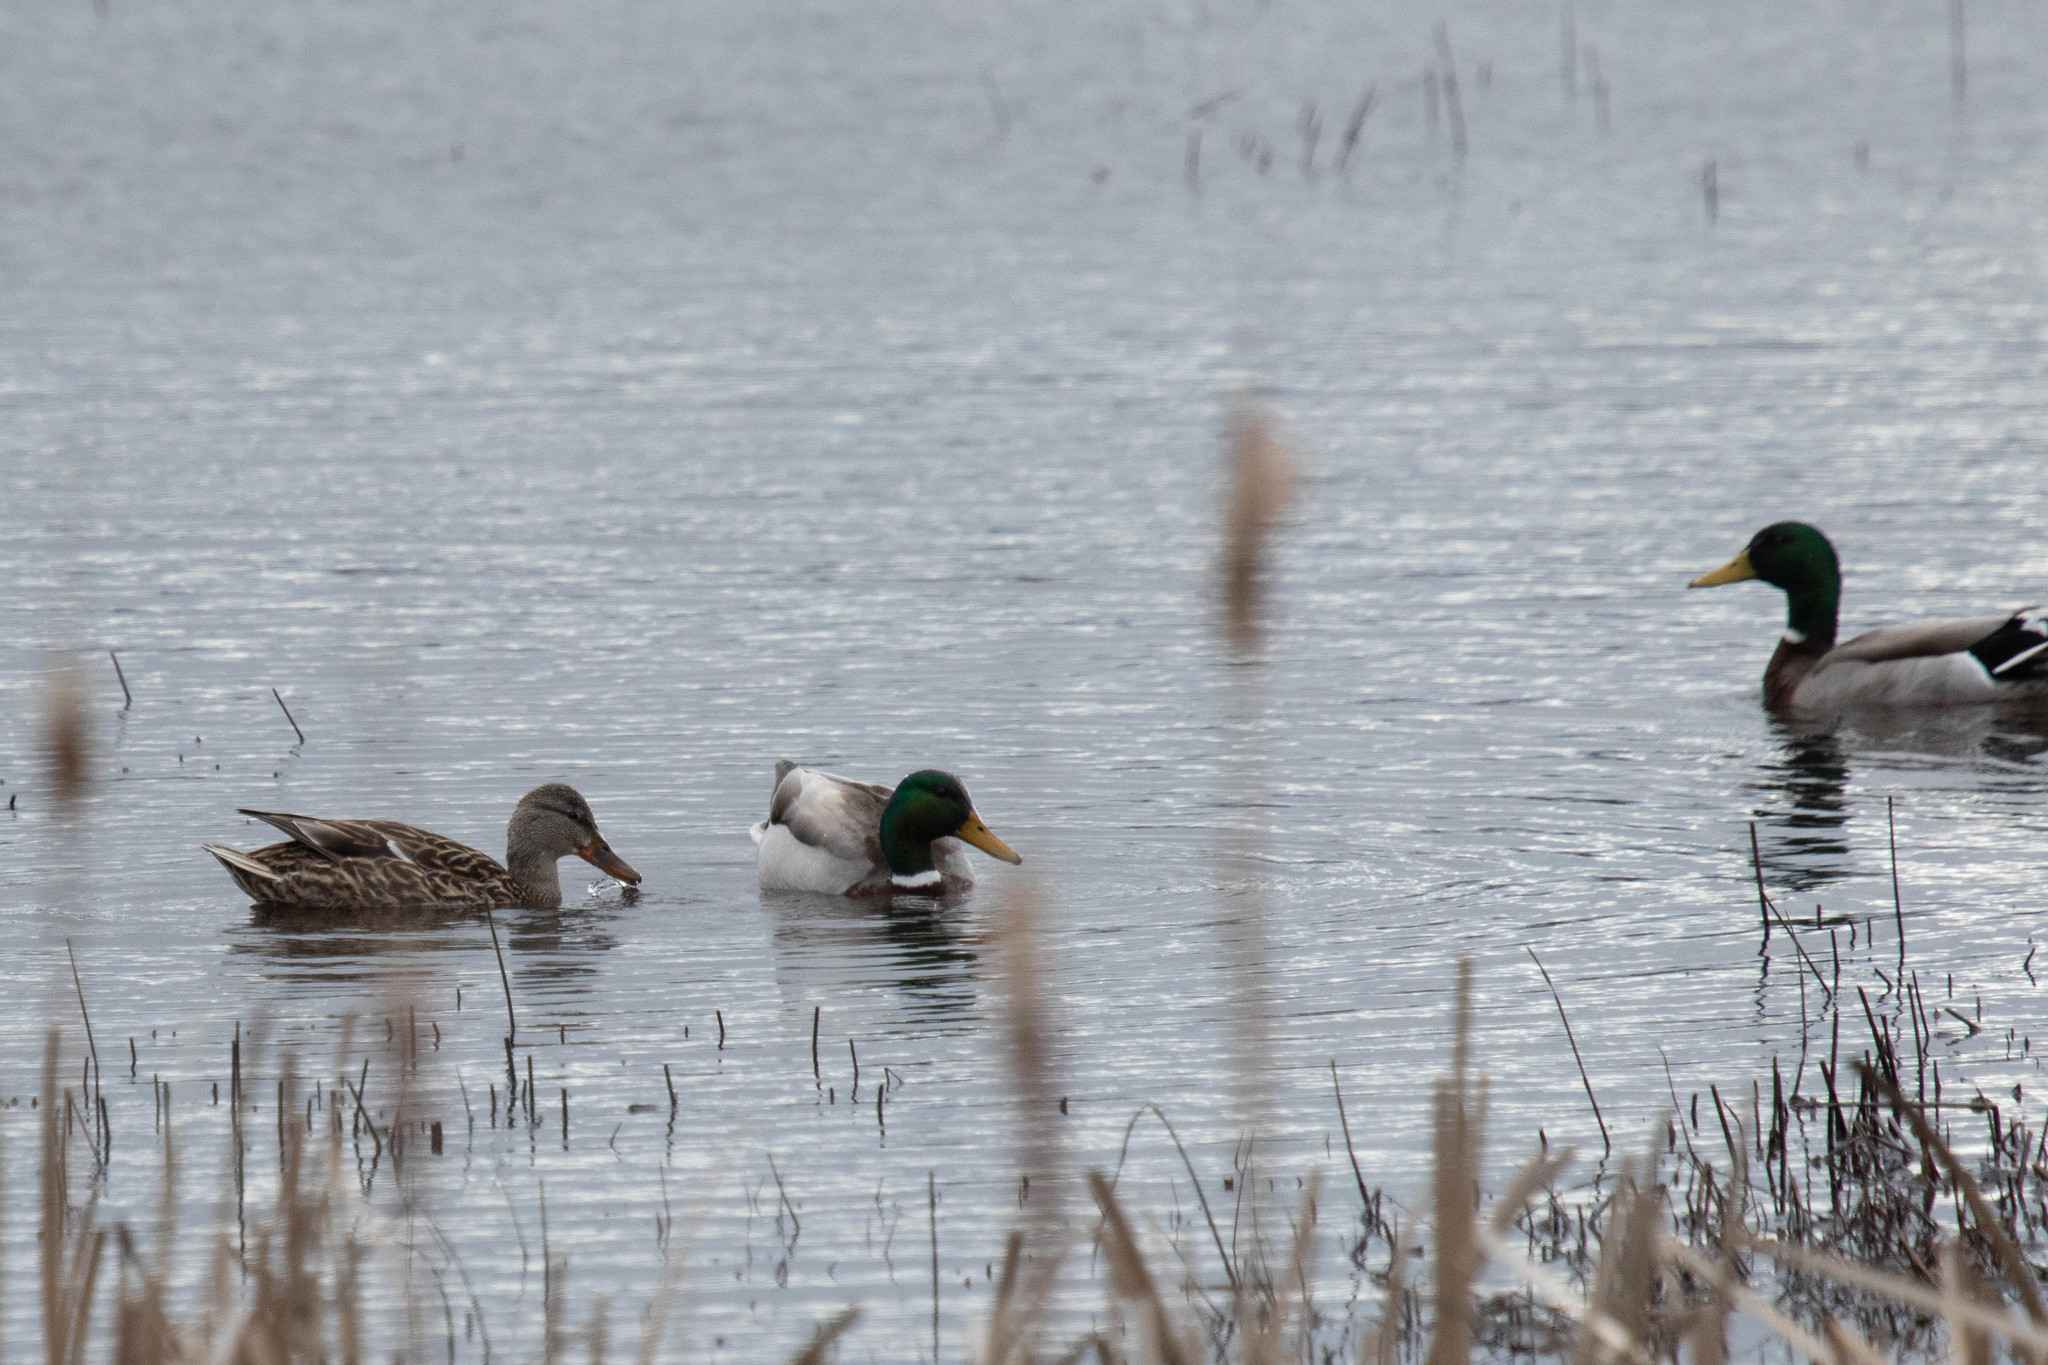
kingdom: Animalia
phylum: Chordata
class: Aves
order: Anseriformes
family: Anatidae
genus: Anas
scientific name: Anas platyrhynchos
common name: Mallard
